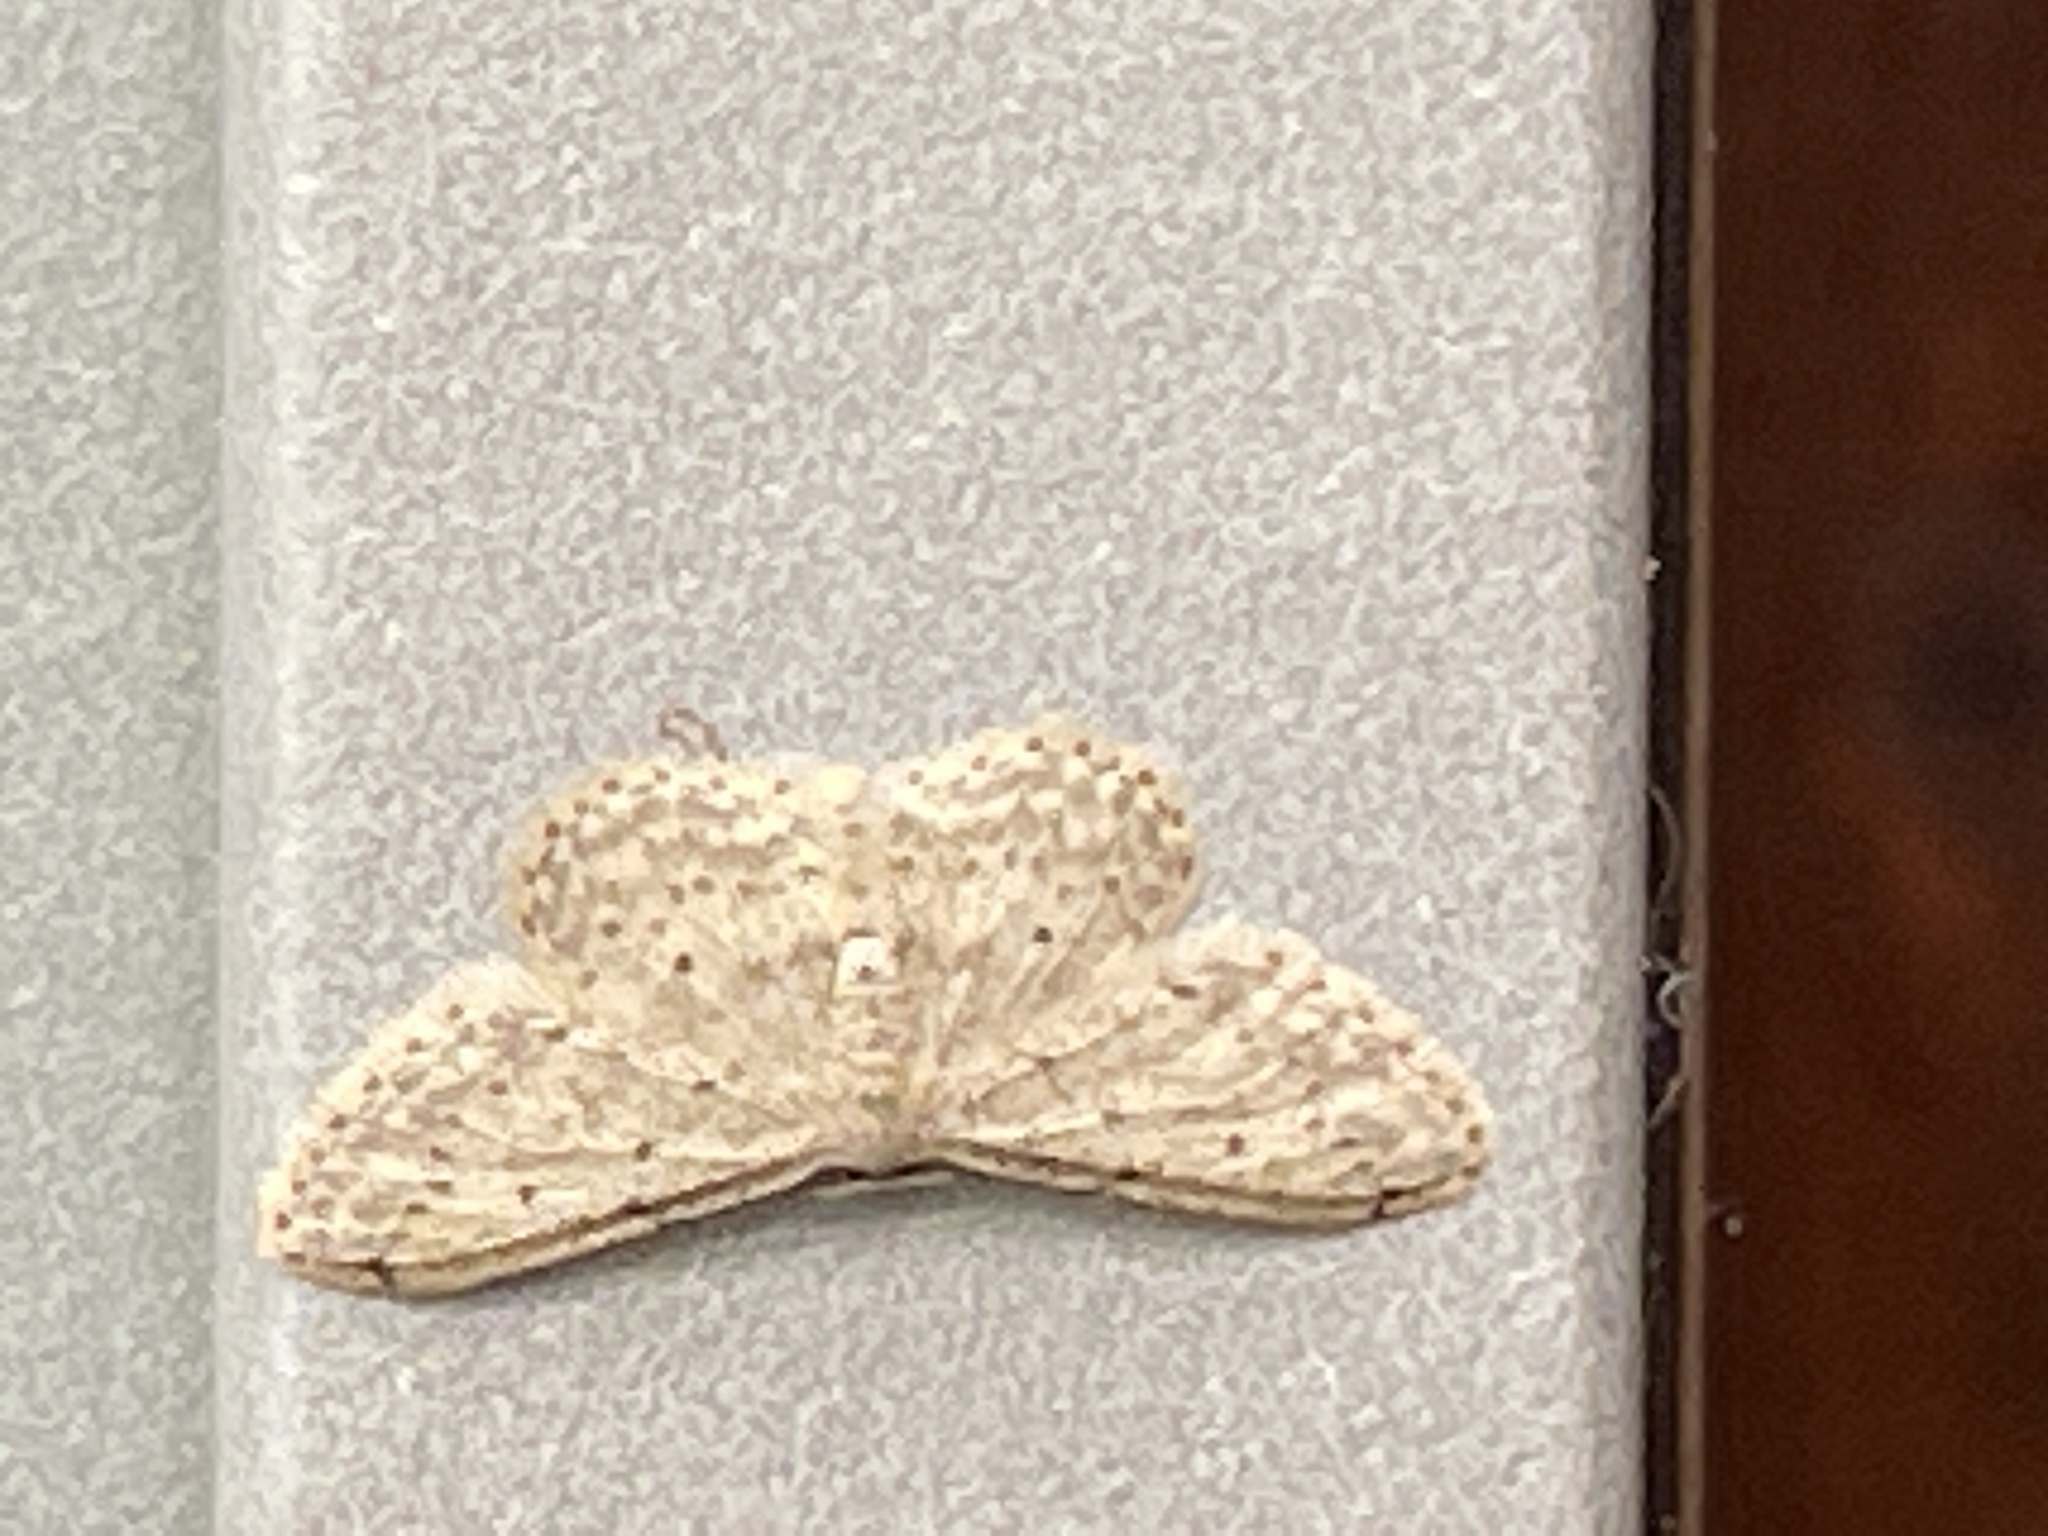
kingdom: Animalia
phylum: Arthropoda
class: Insecta
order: Lepidoptera
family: Geometridae
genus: Idaea
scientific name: Idaea seriata
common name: Small dusty wave
